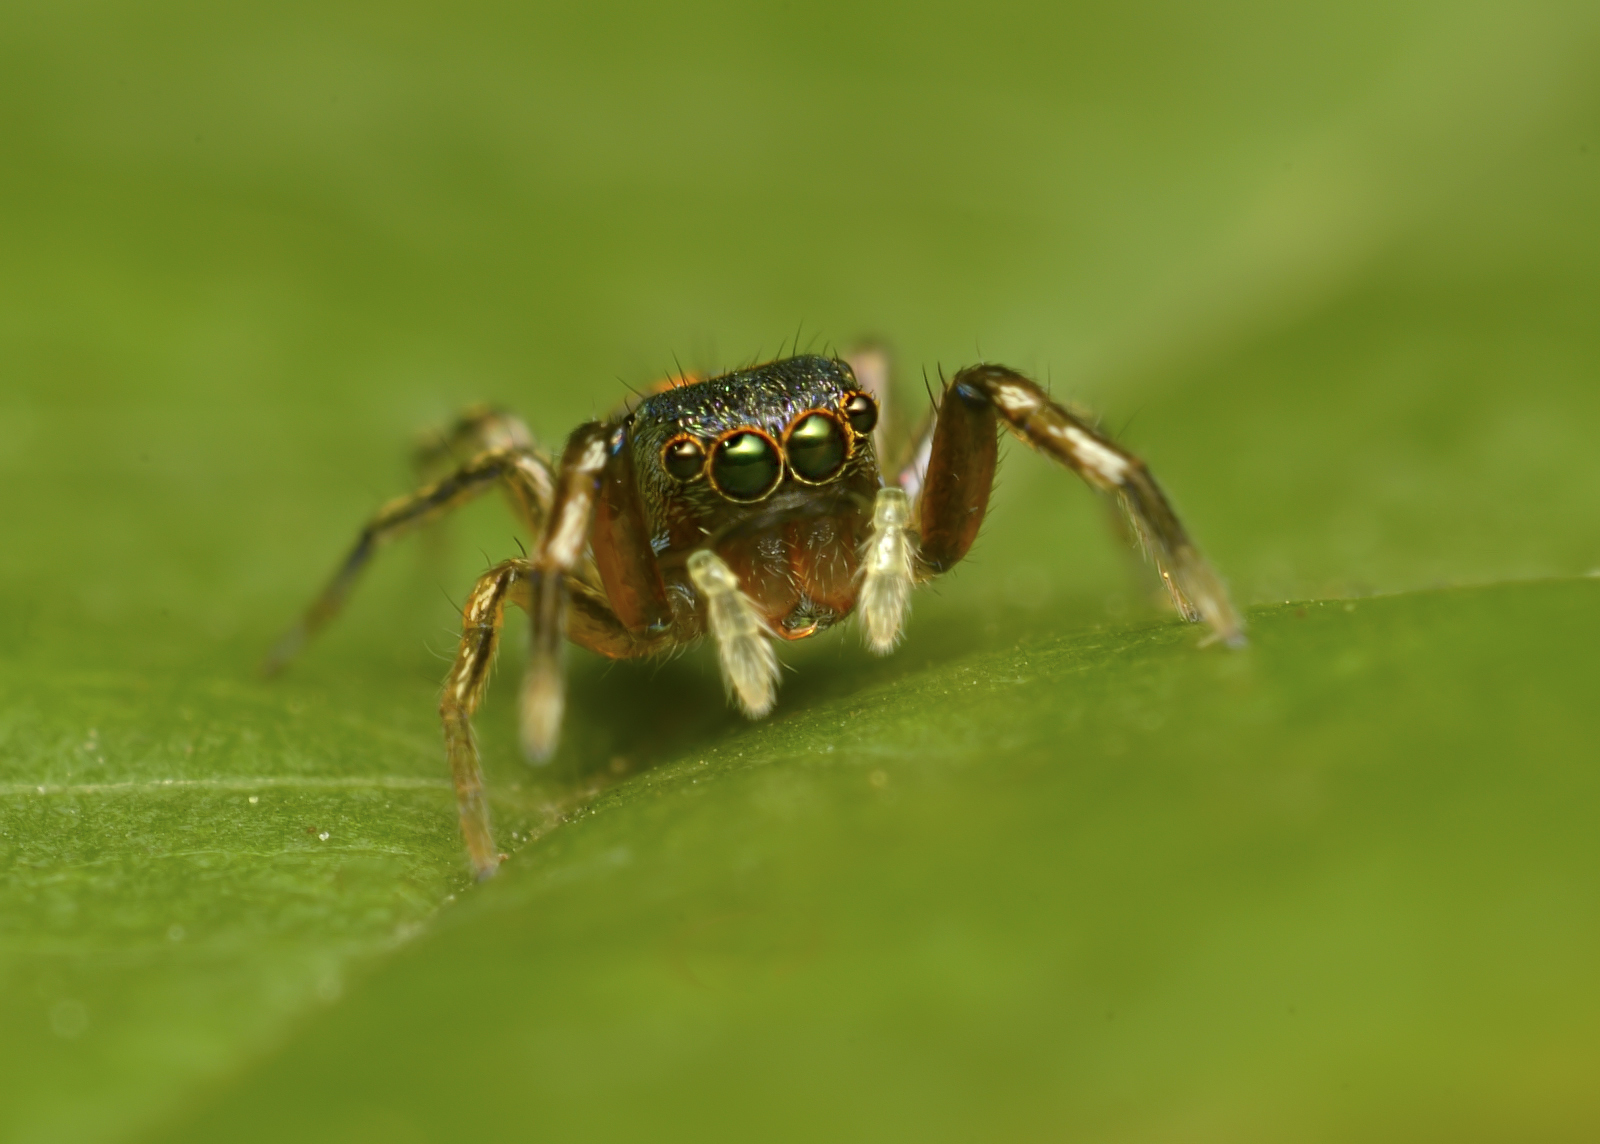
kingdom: Animalia
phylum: Arthropoda
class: Arachnida
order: Araneae
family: Salticidae
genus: Siler
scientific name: Siler semiglaucus
